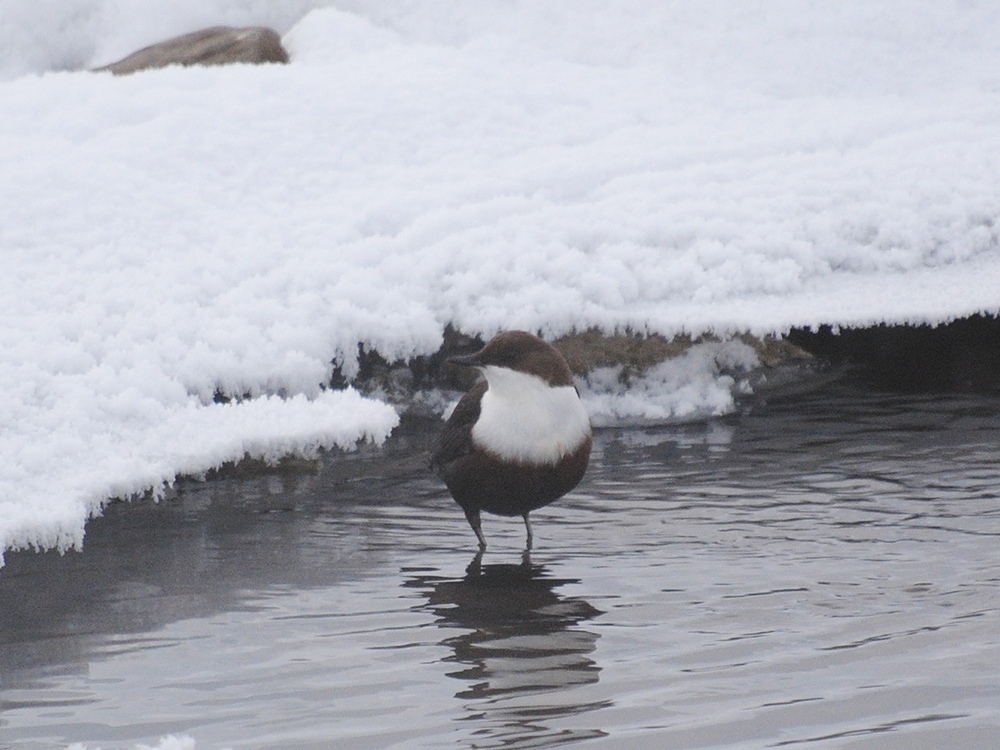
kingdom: Animalia
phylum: Chordata
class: Aves
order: Passeriformes
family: Cinclidae
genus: Cinclus
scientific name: Cinclus cinclus
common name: White-throated dipper
